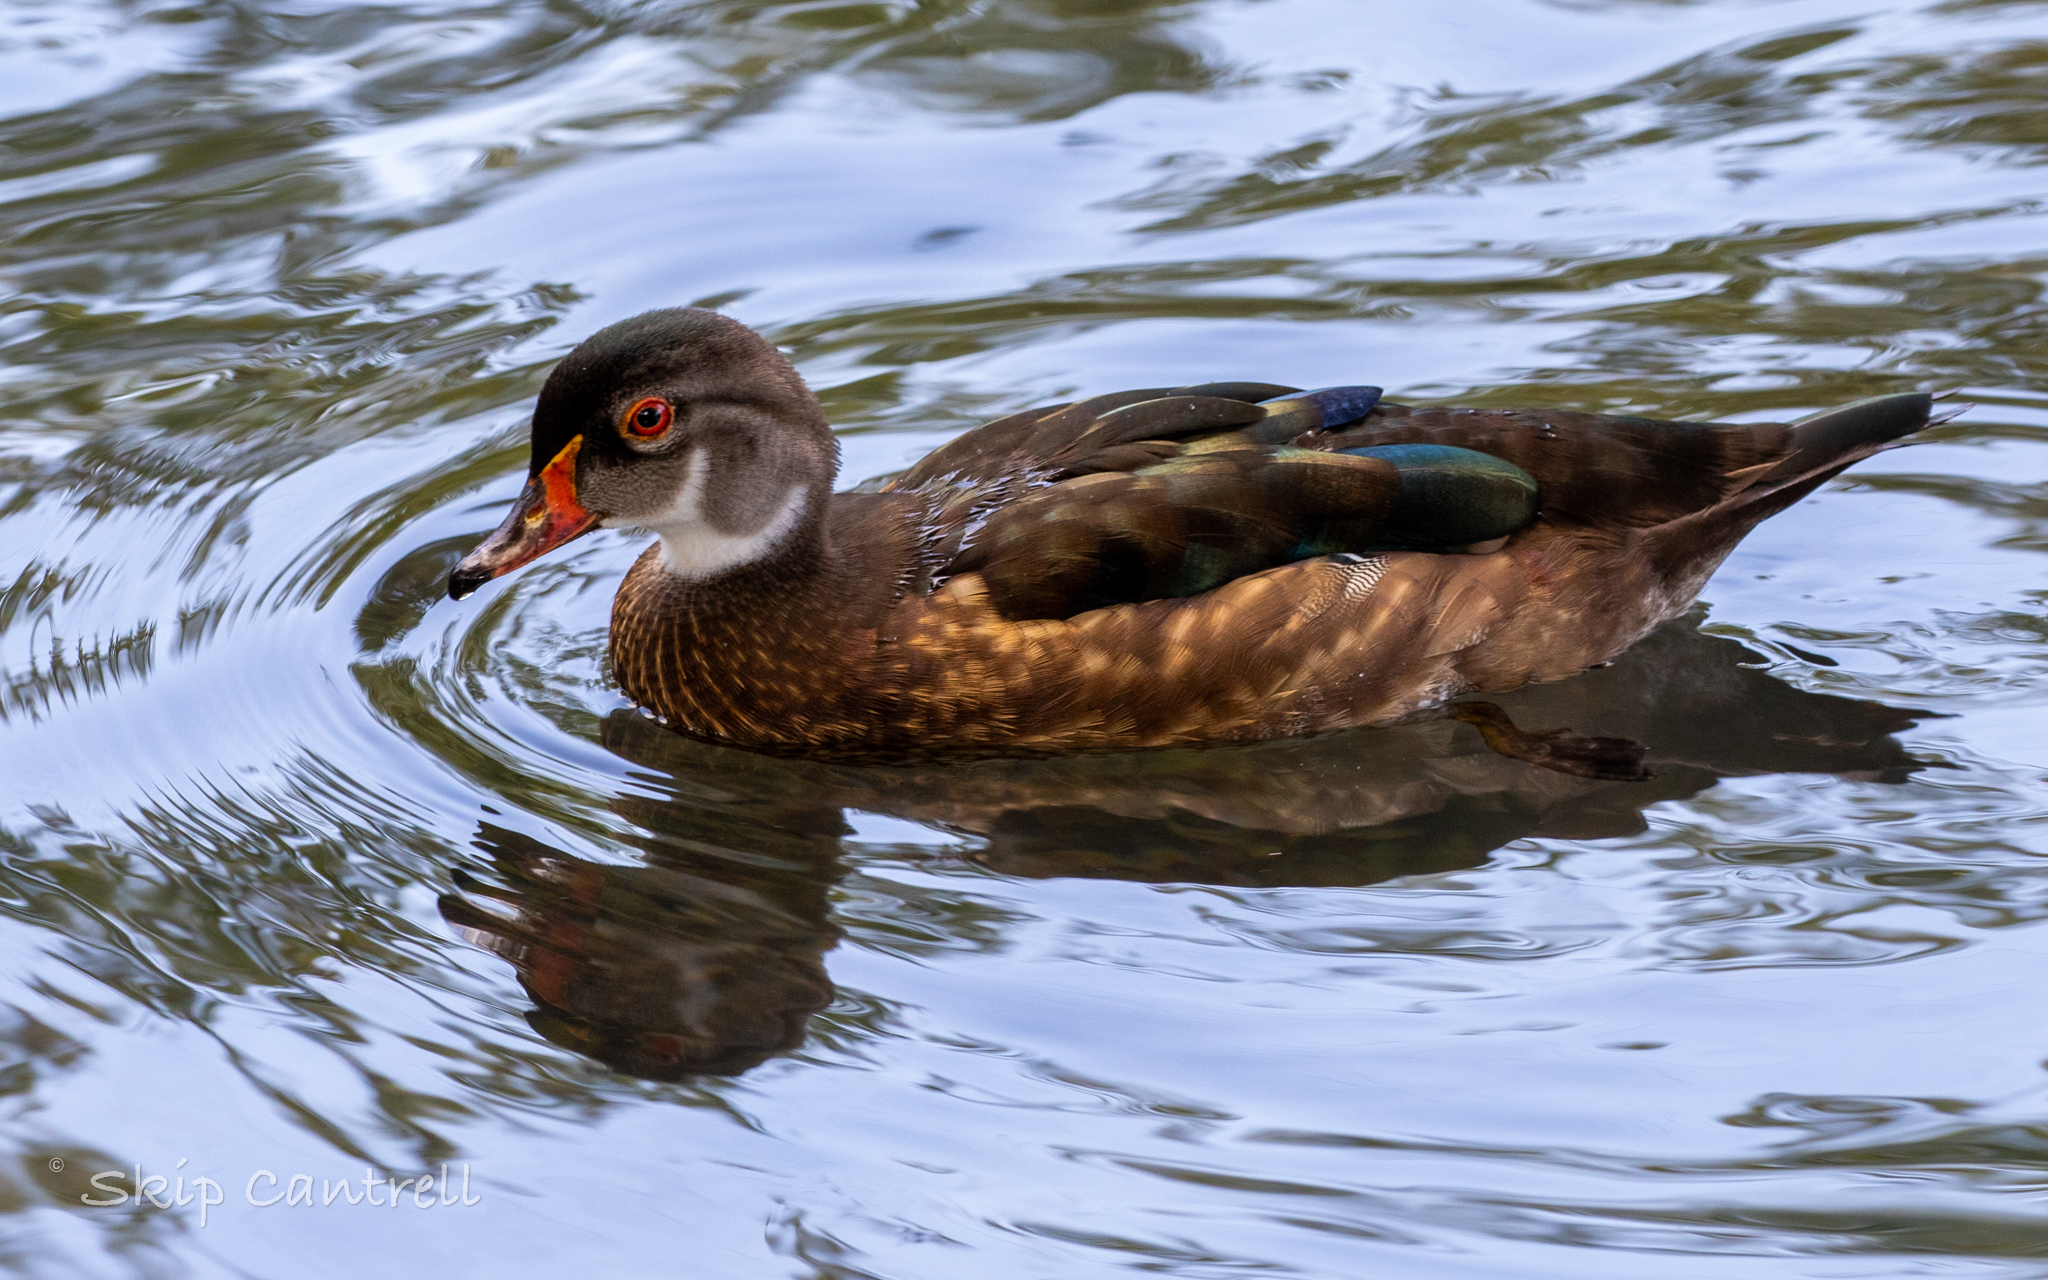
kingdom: Animalia
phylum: Chordata
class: Aves
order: Anseriformes
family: Anatidae
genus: Aix
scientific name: Aix sponsa
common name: Wood duck
